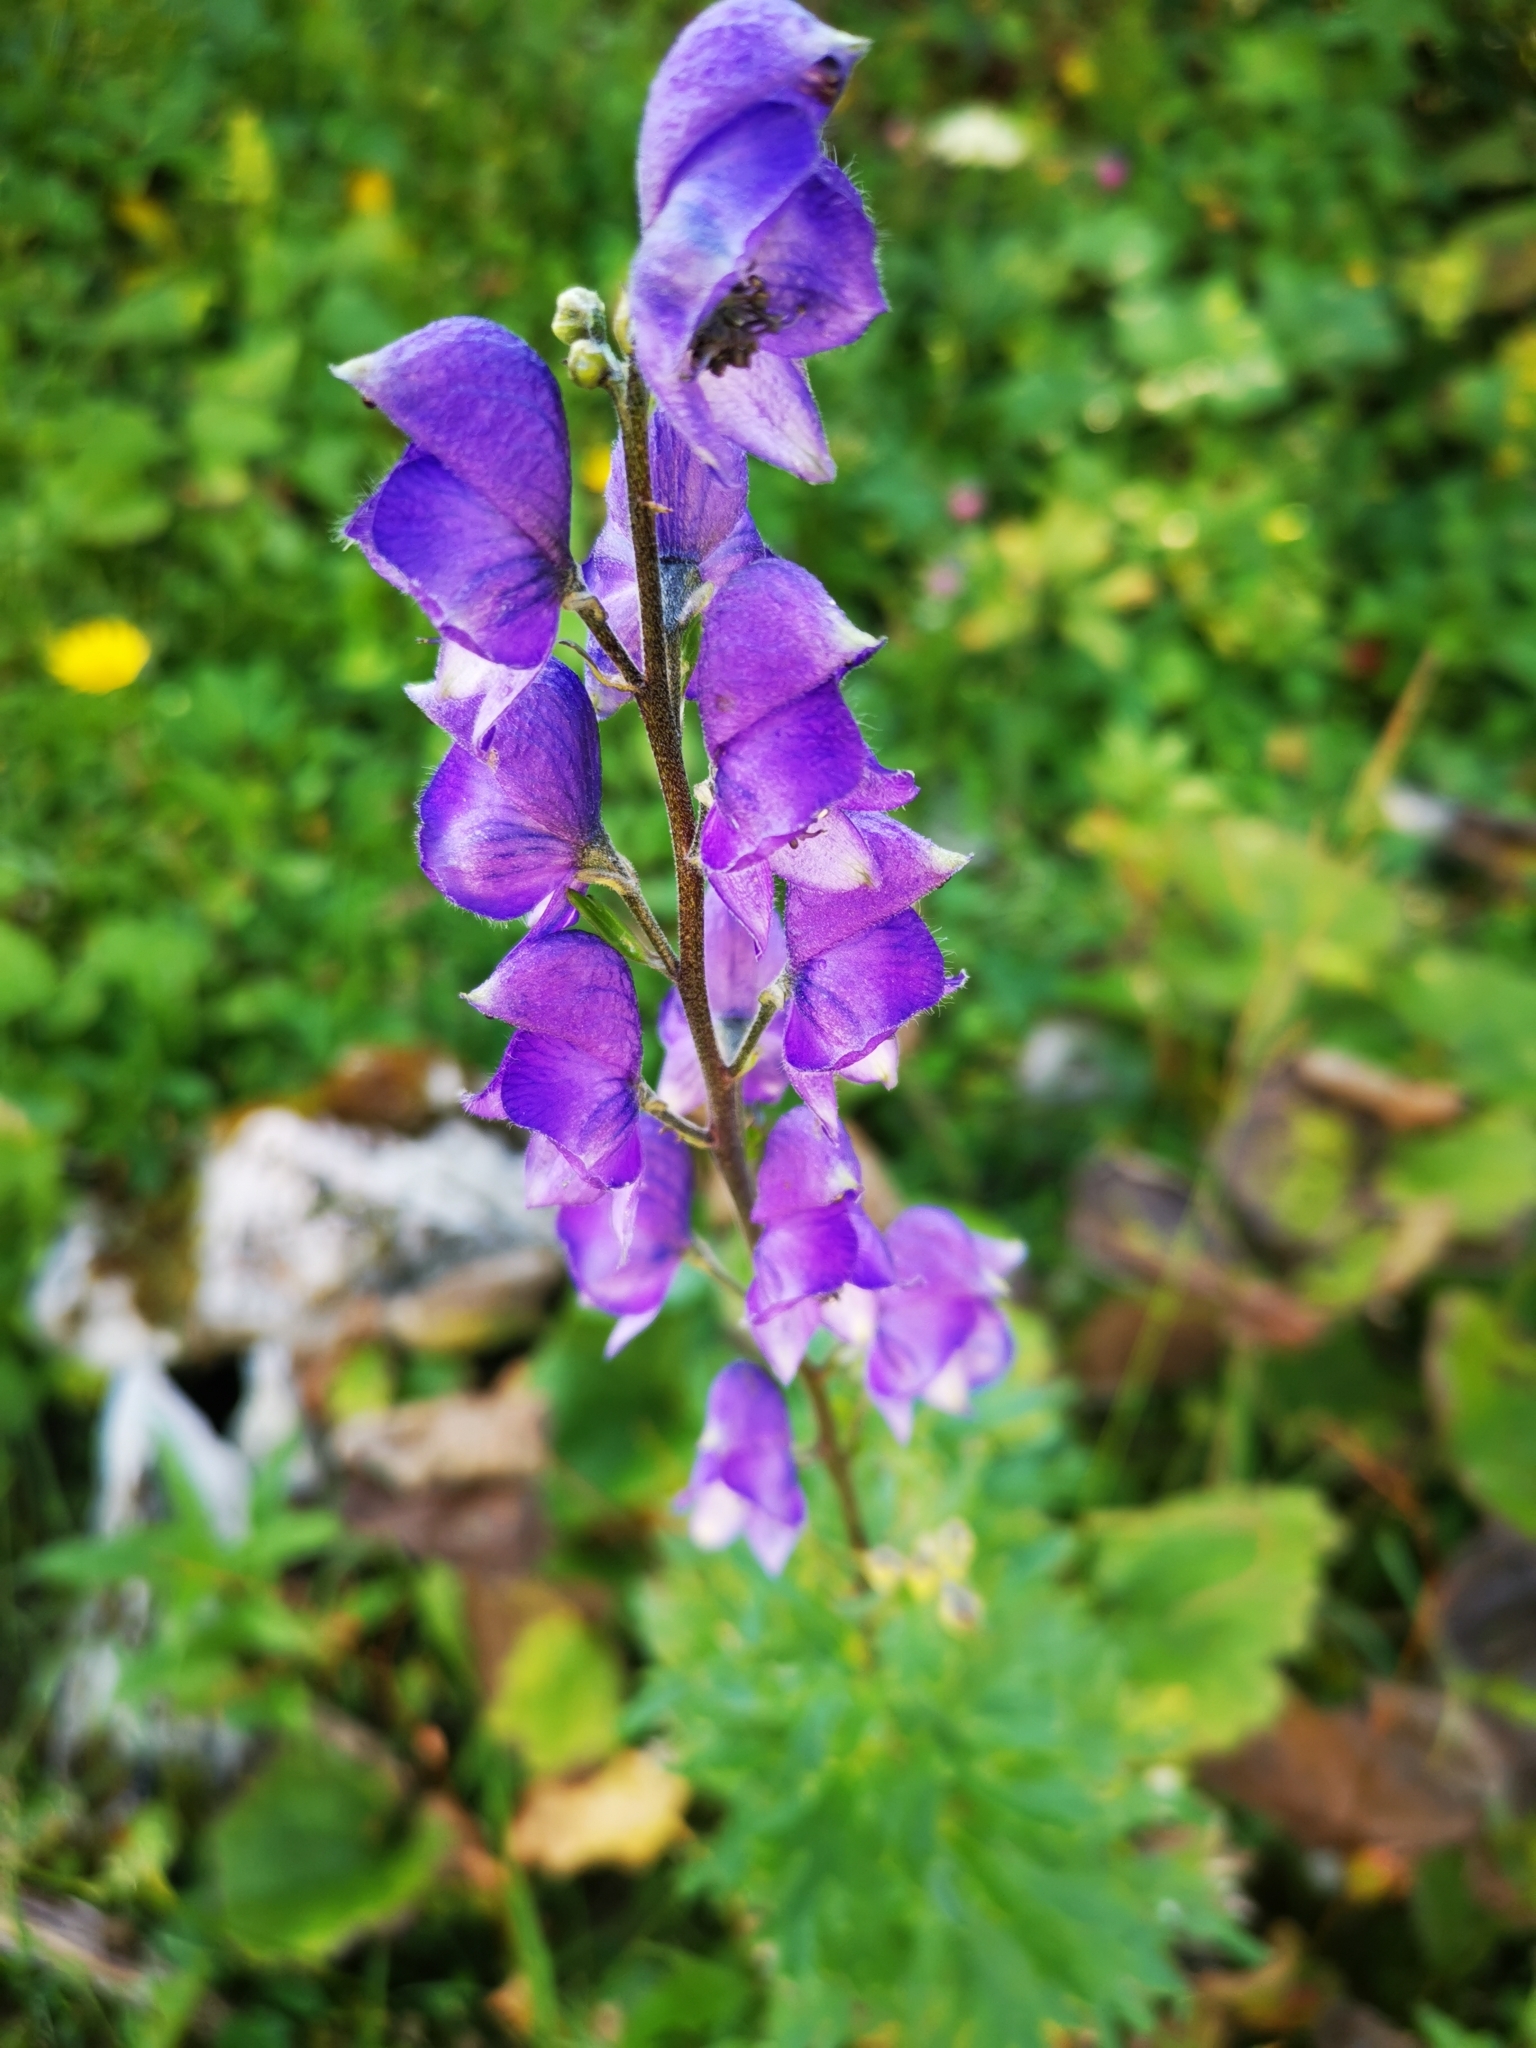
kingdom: Plantae
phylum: Tracheophyta
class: Magnoliopsida
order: Ranunculales
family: Ranunculaceae
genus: Aconitum
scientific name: Aconitum napellus
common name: Garden monkshood
